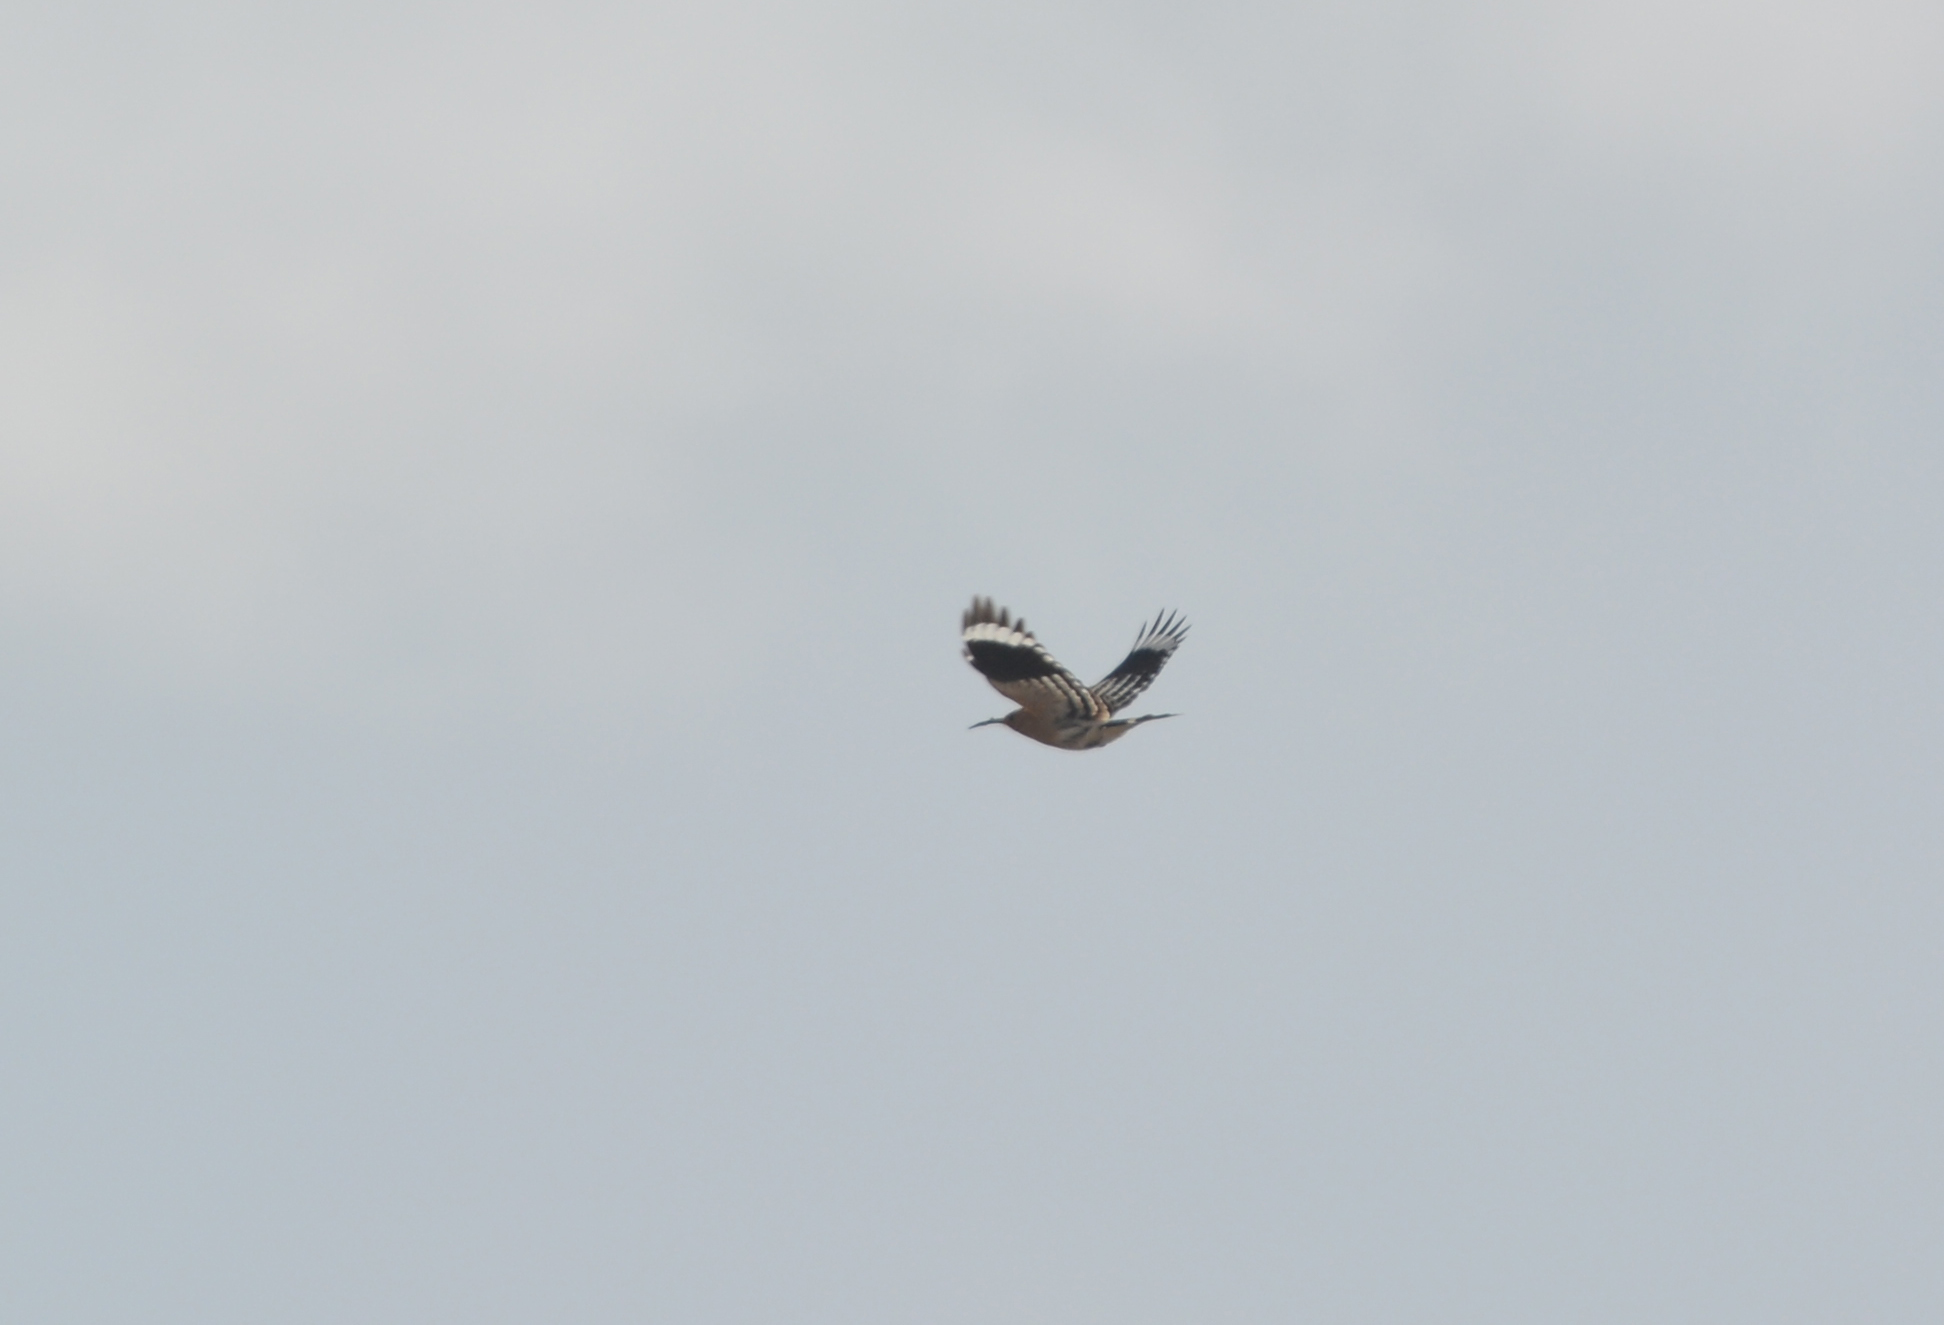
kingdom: Animalia
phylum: Chordata
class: Aves
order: Bucerotiformes
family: Upupidae
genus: Upupa
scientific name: Upupa epops
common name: Eurasian hoopoe
